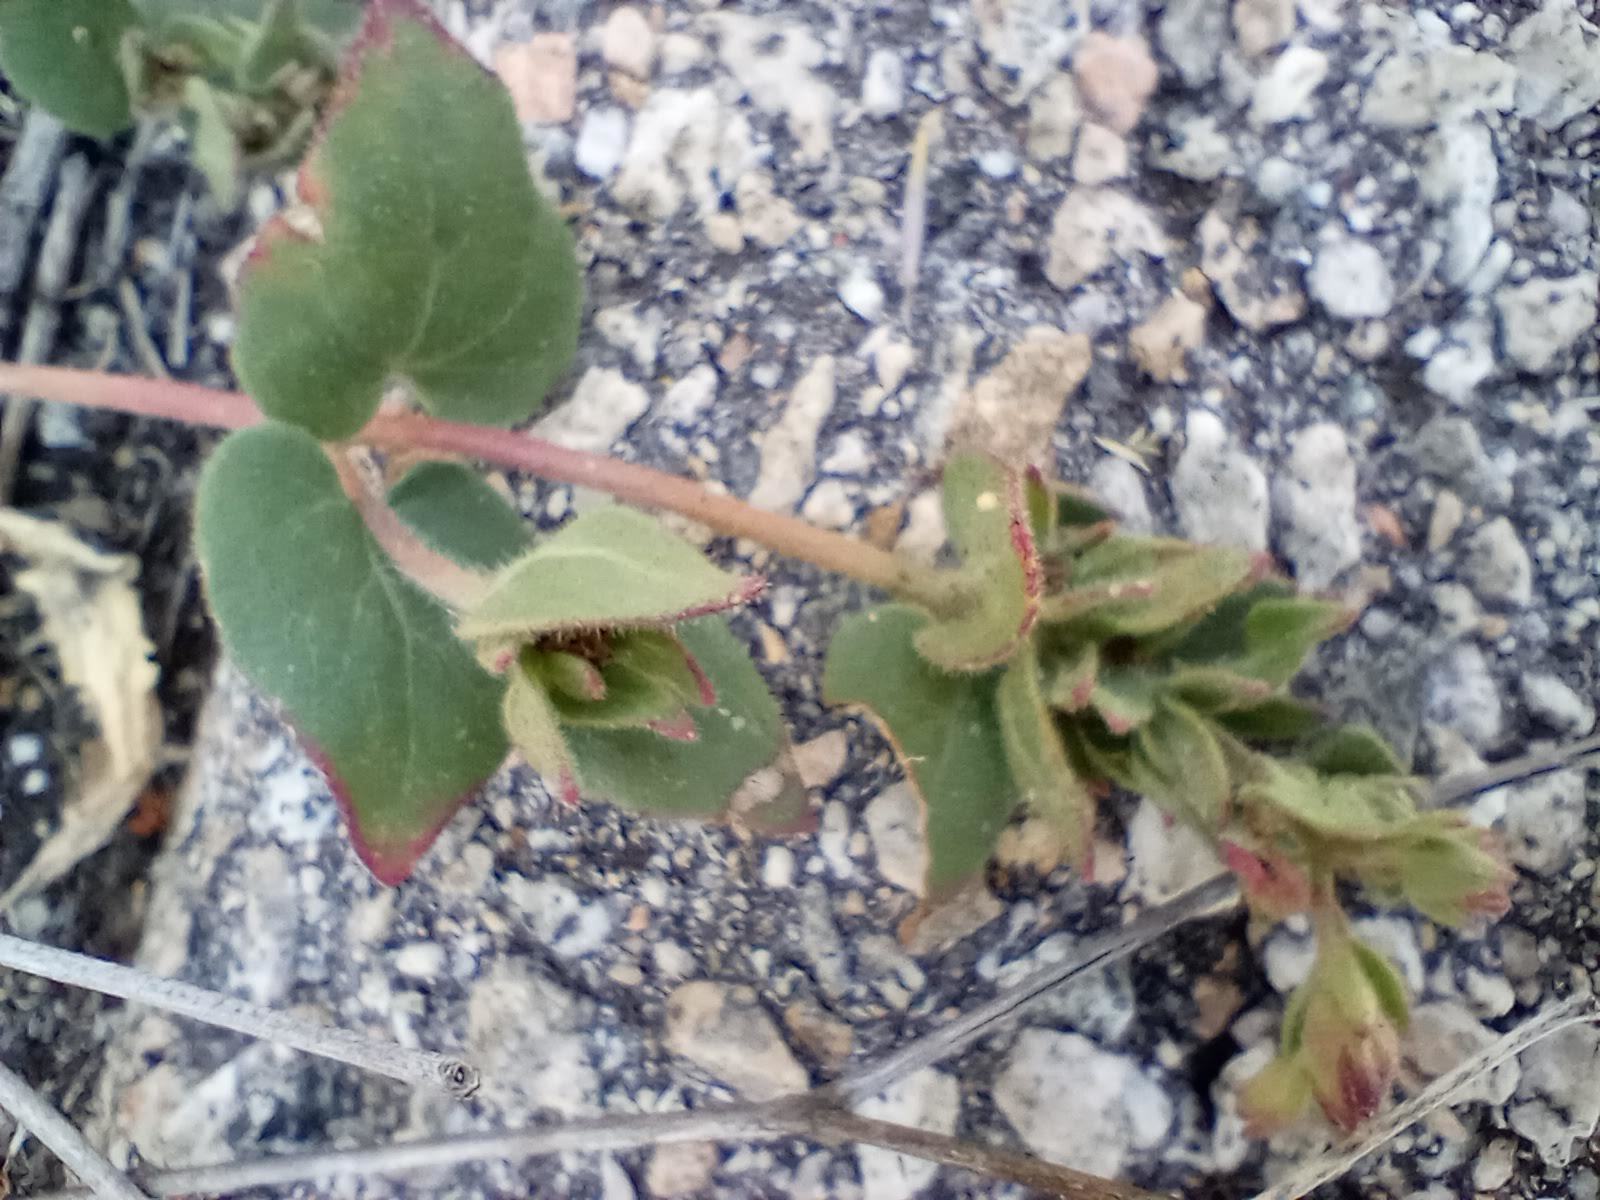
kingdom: Plantae
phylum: Tracheophyta
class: Magnoliopsida
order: Caryophyllales
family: Nyctaginaceae
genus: Mirabilis
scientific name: Mirabilis laevis
